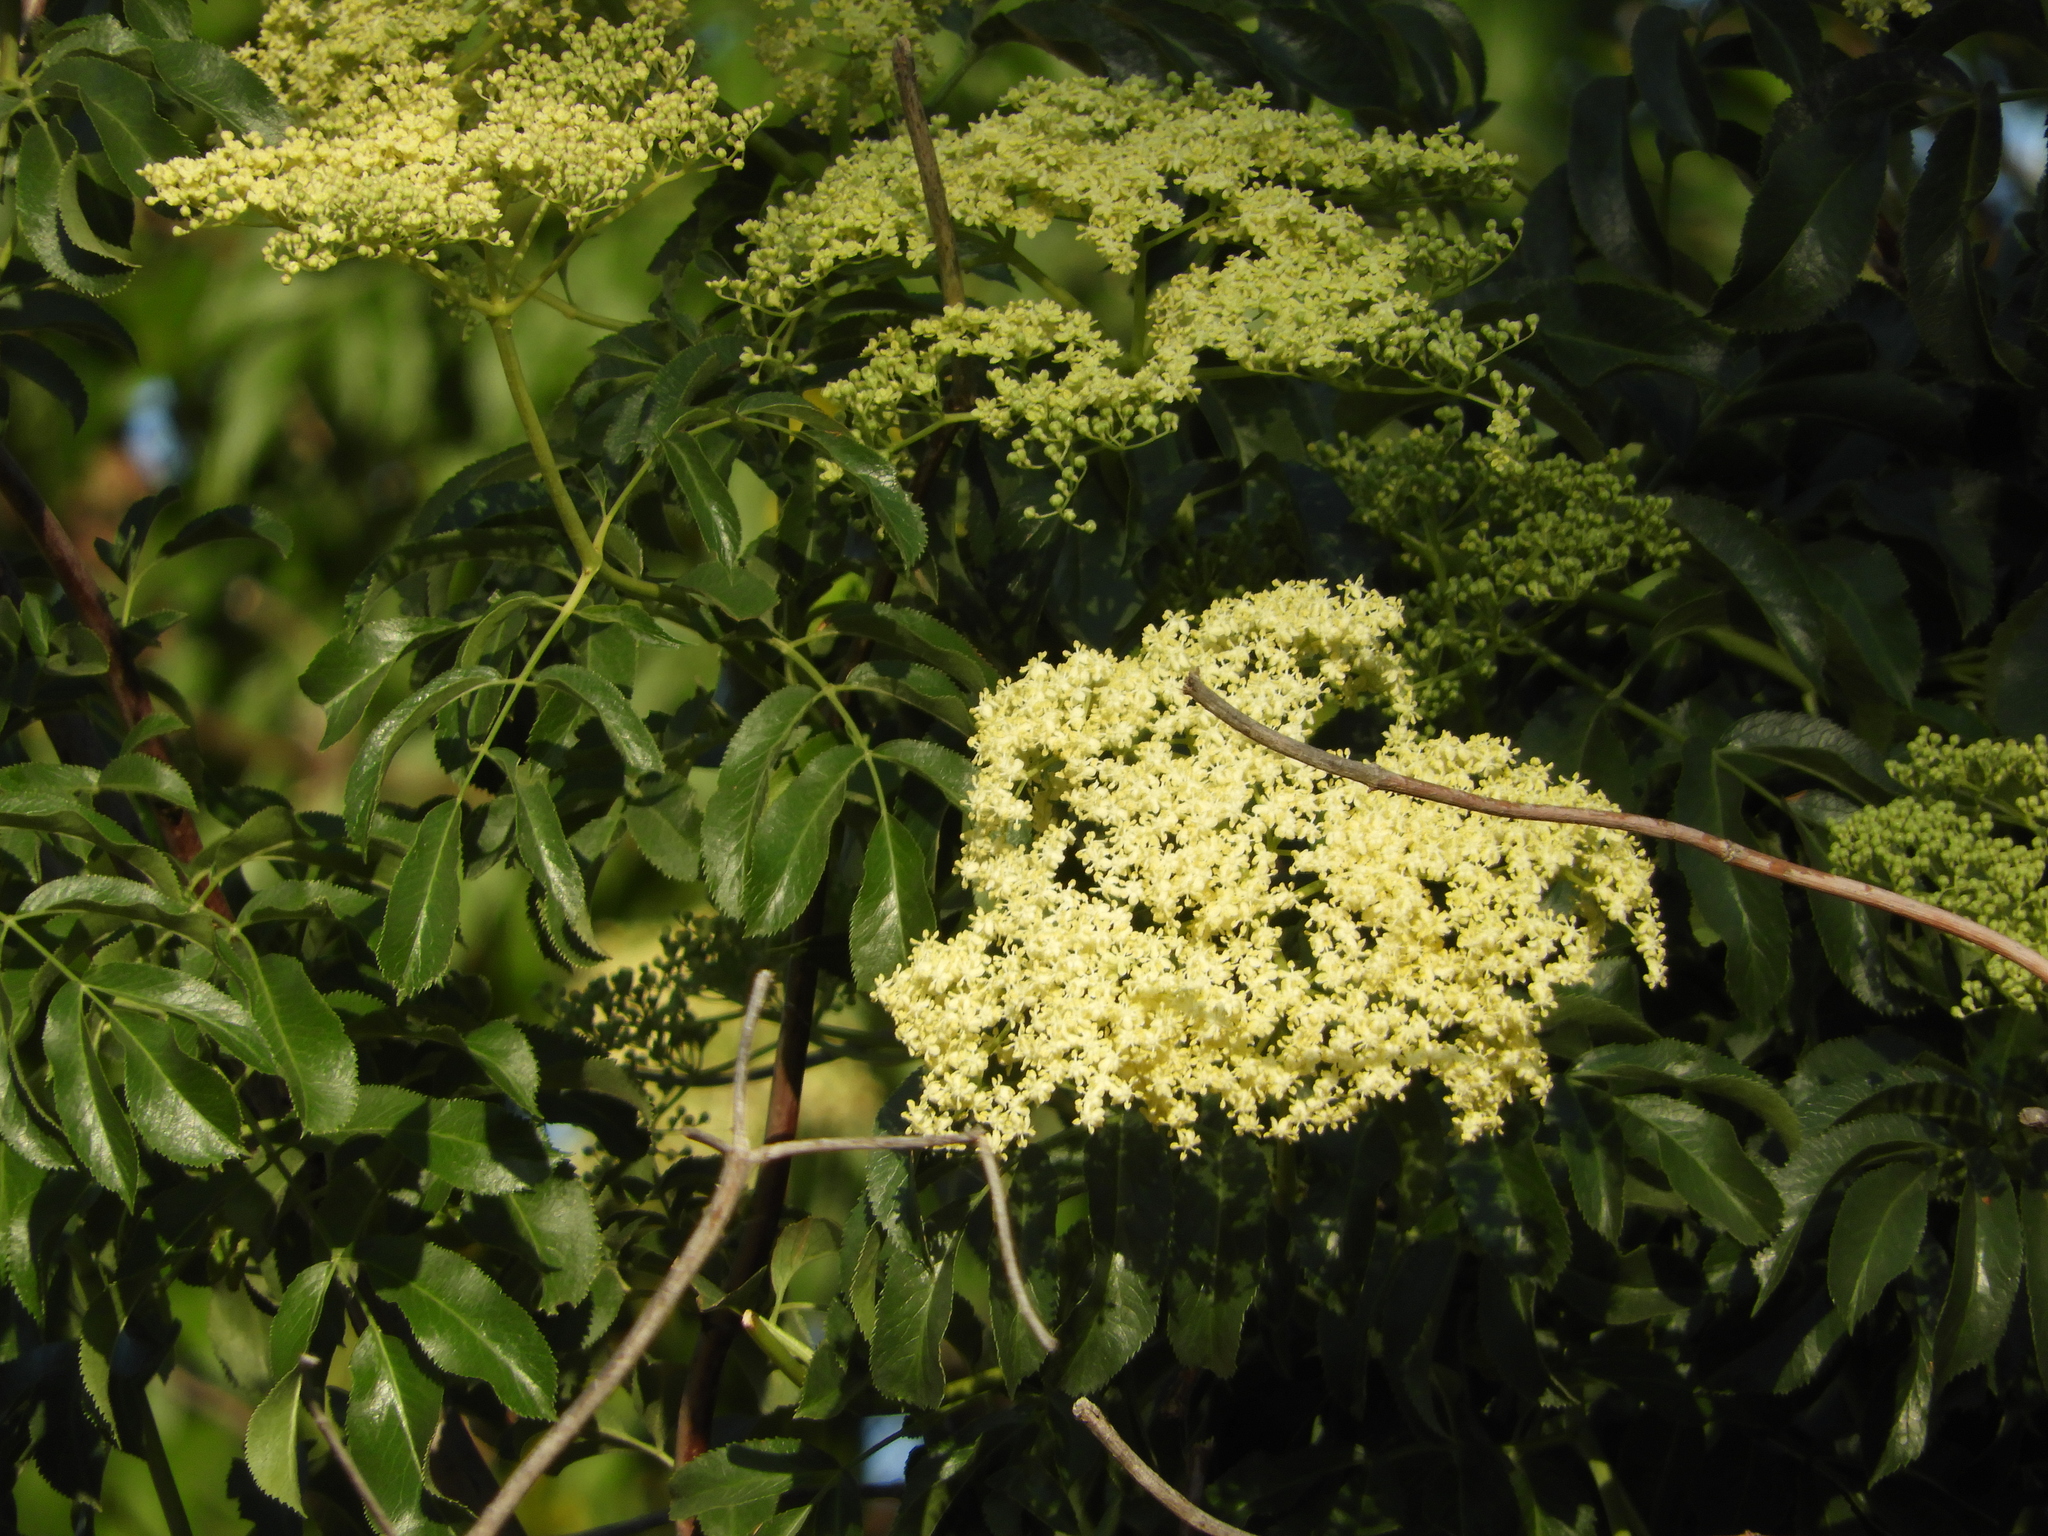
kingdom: Plantae
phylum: Tracheophyta
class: Magnoliopsida
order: Dipsacales
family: Viburnaceae
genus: Sambucus
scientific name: Sambucus cerulea
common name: Blue elder
